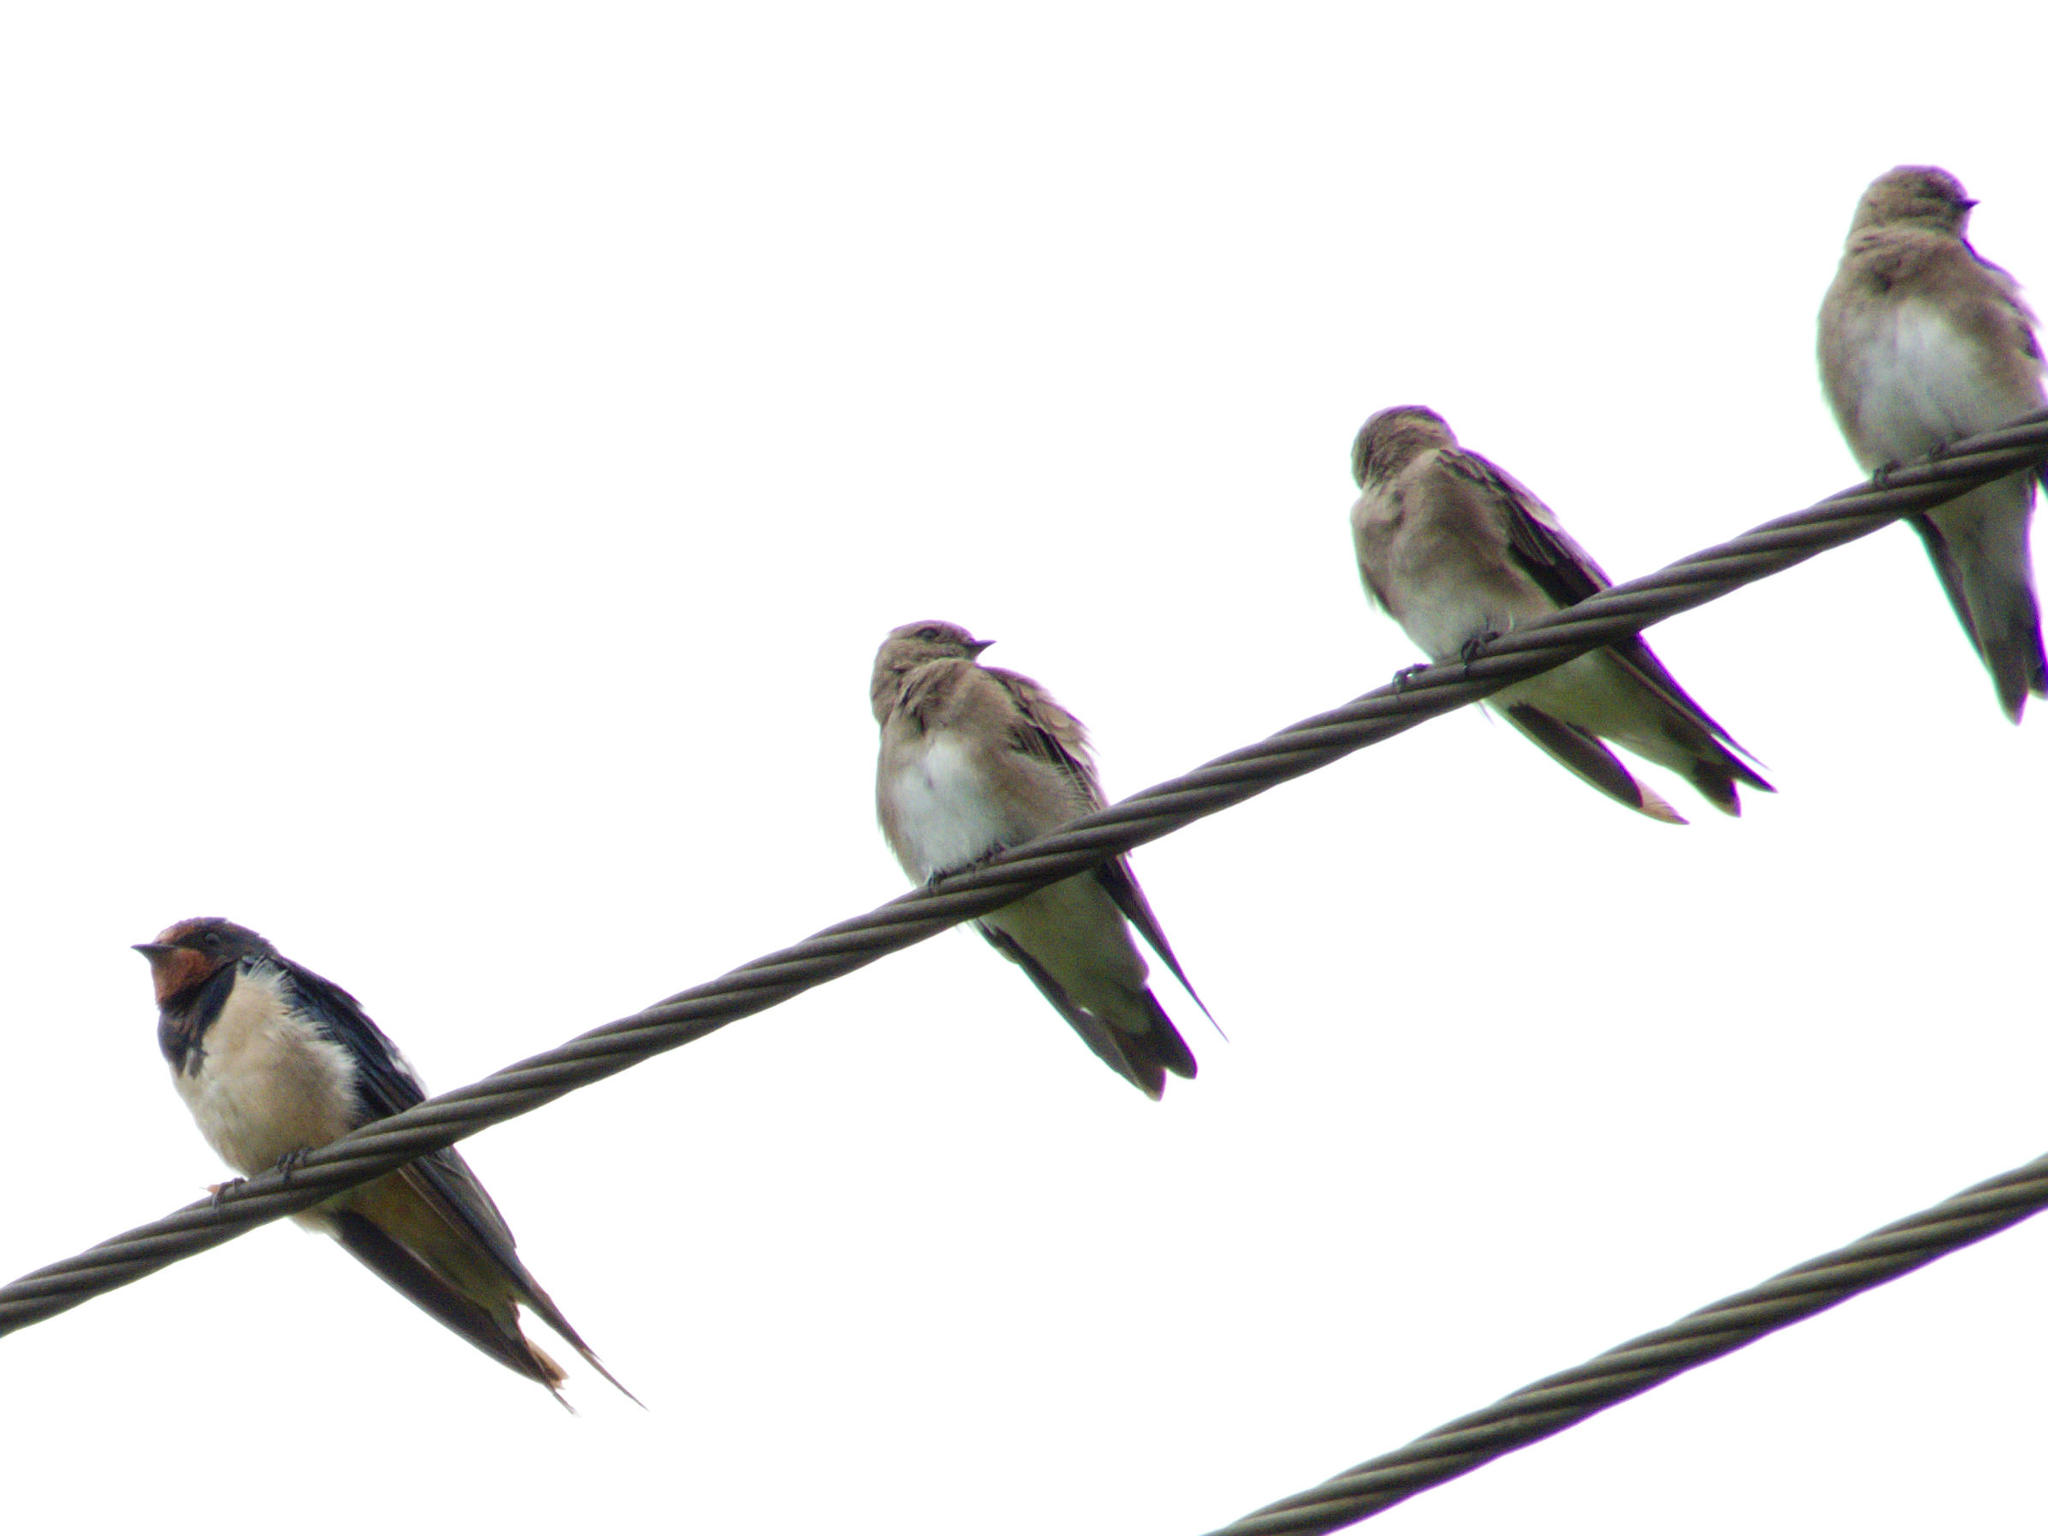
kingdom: Animalia
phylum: Chordata
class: Aves
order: Passeriformes
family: Hirundinidae
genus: Riparia
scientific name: Riparia paludicola
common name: Brown-throated martin
